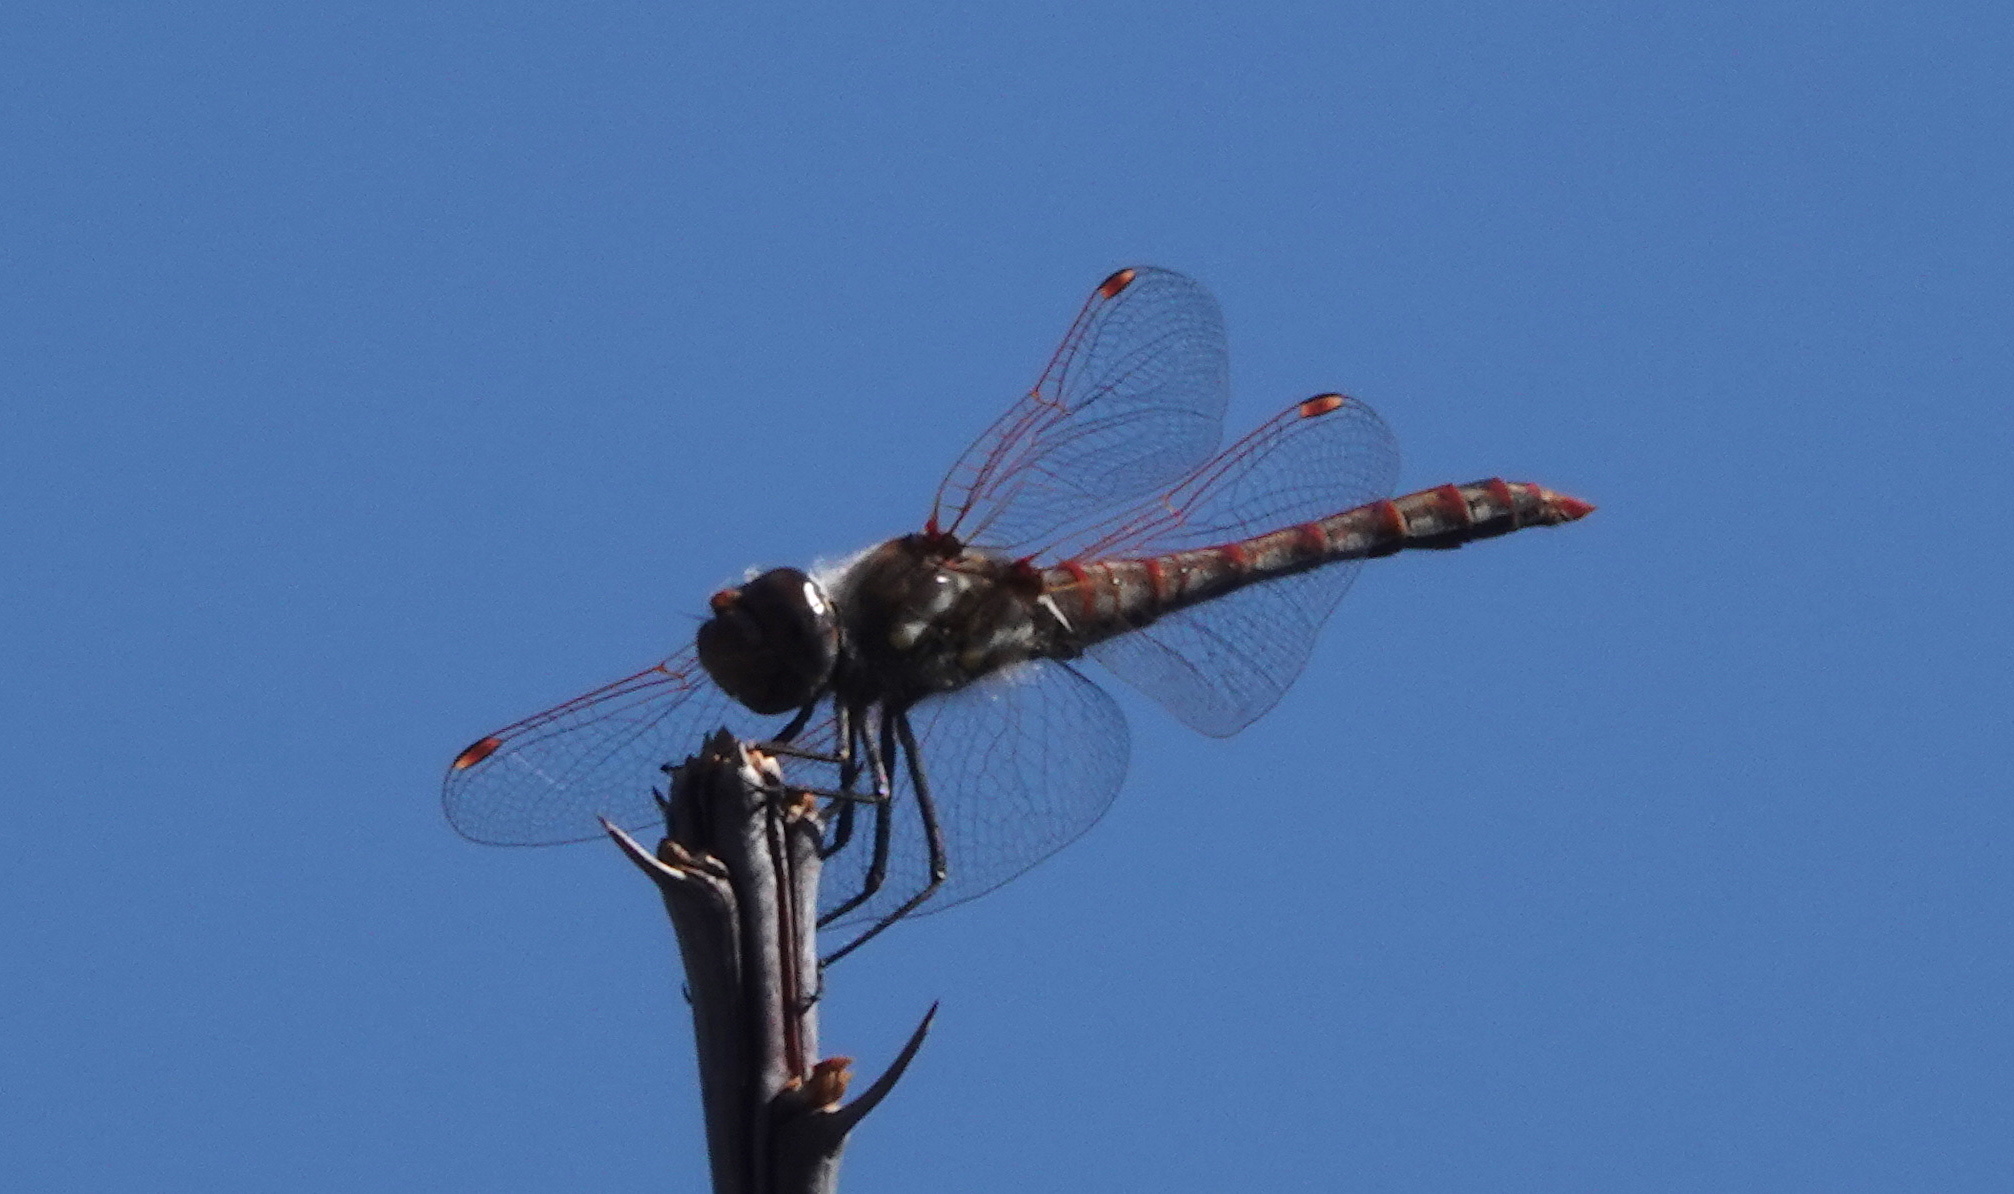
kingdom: Animalia
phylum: Arthropoda
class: Insecta
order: Odonata
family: Libellulidae
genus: Sympetrum
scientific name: Sympetrum corruptum
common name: Variegated meadowhawk
